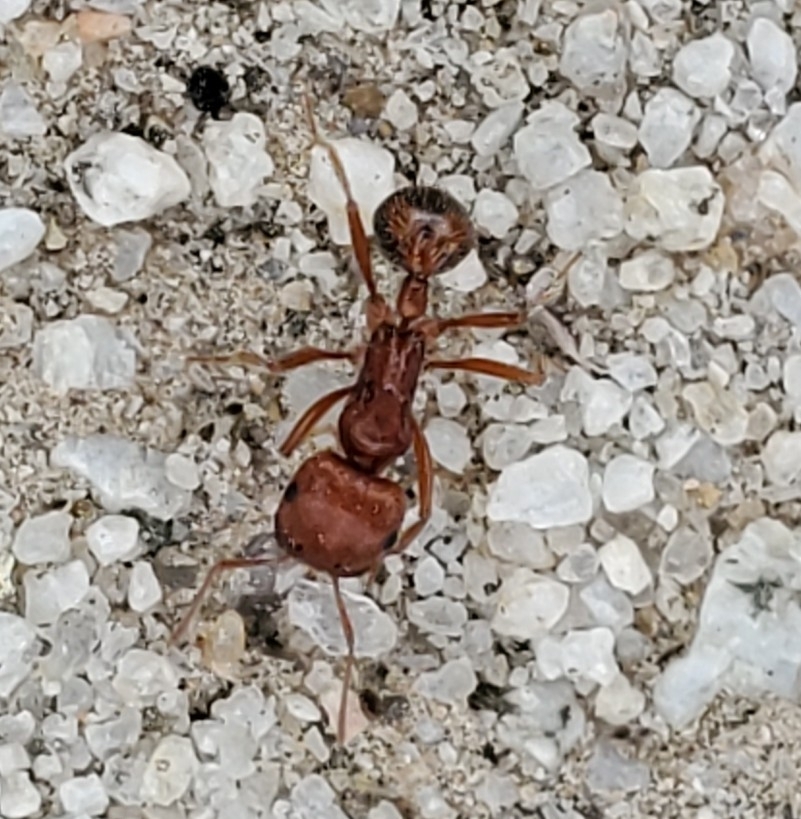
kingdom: Animalia
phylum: Arthropoda
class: Insecta
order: Hymenoptera
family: Formicidae
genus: Pogonomyrmex
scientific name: Pogonomyrmex californicus
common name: California harvester ant
